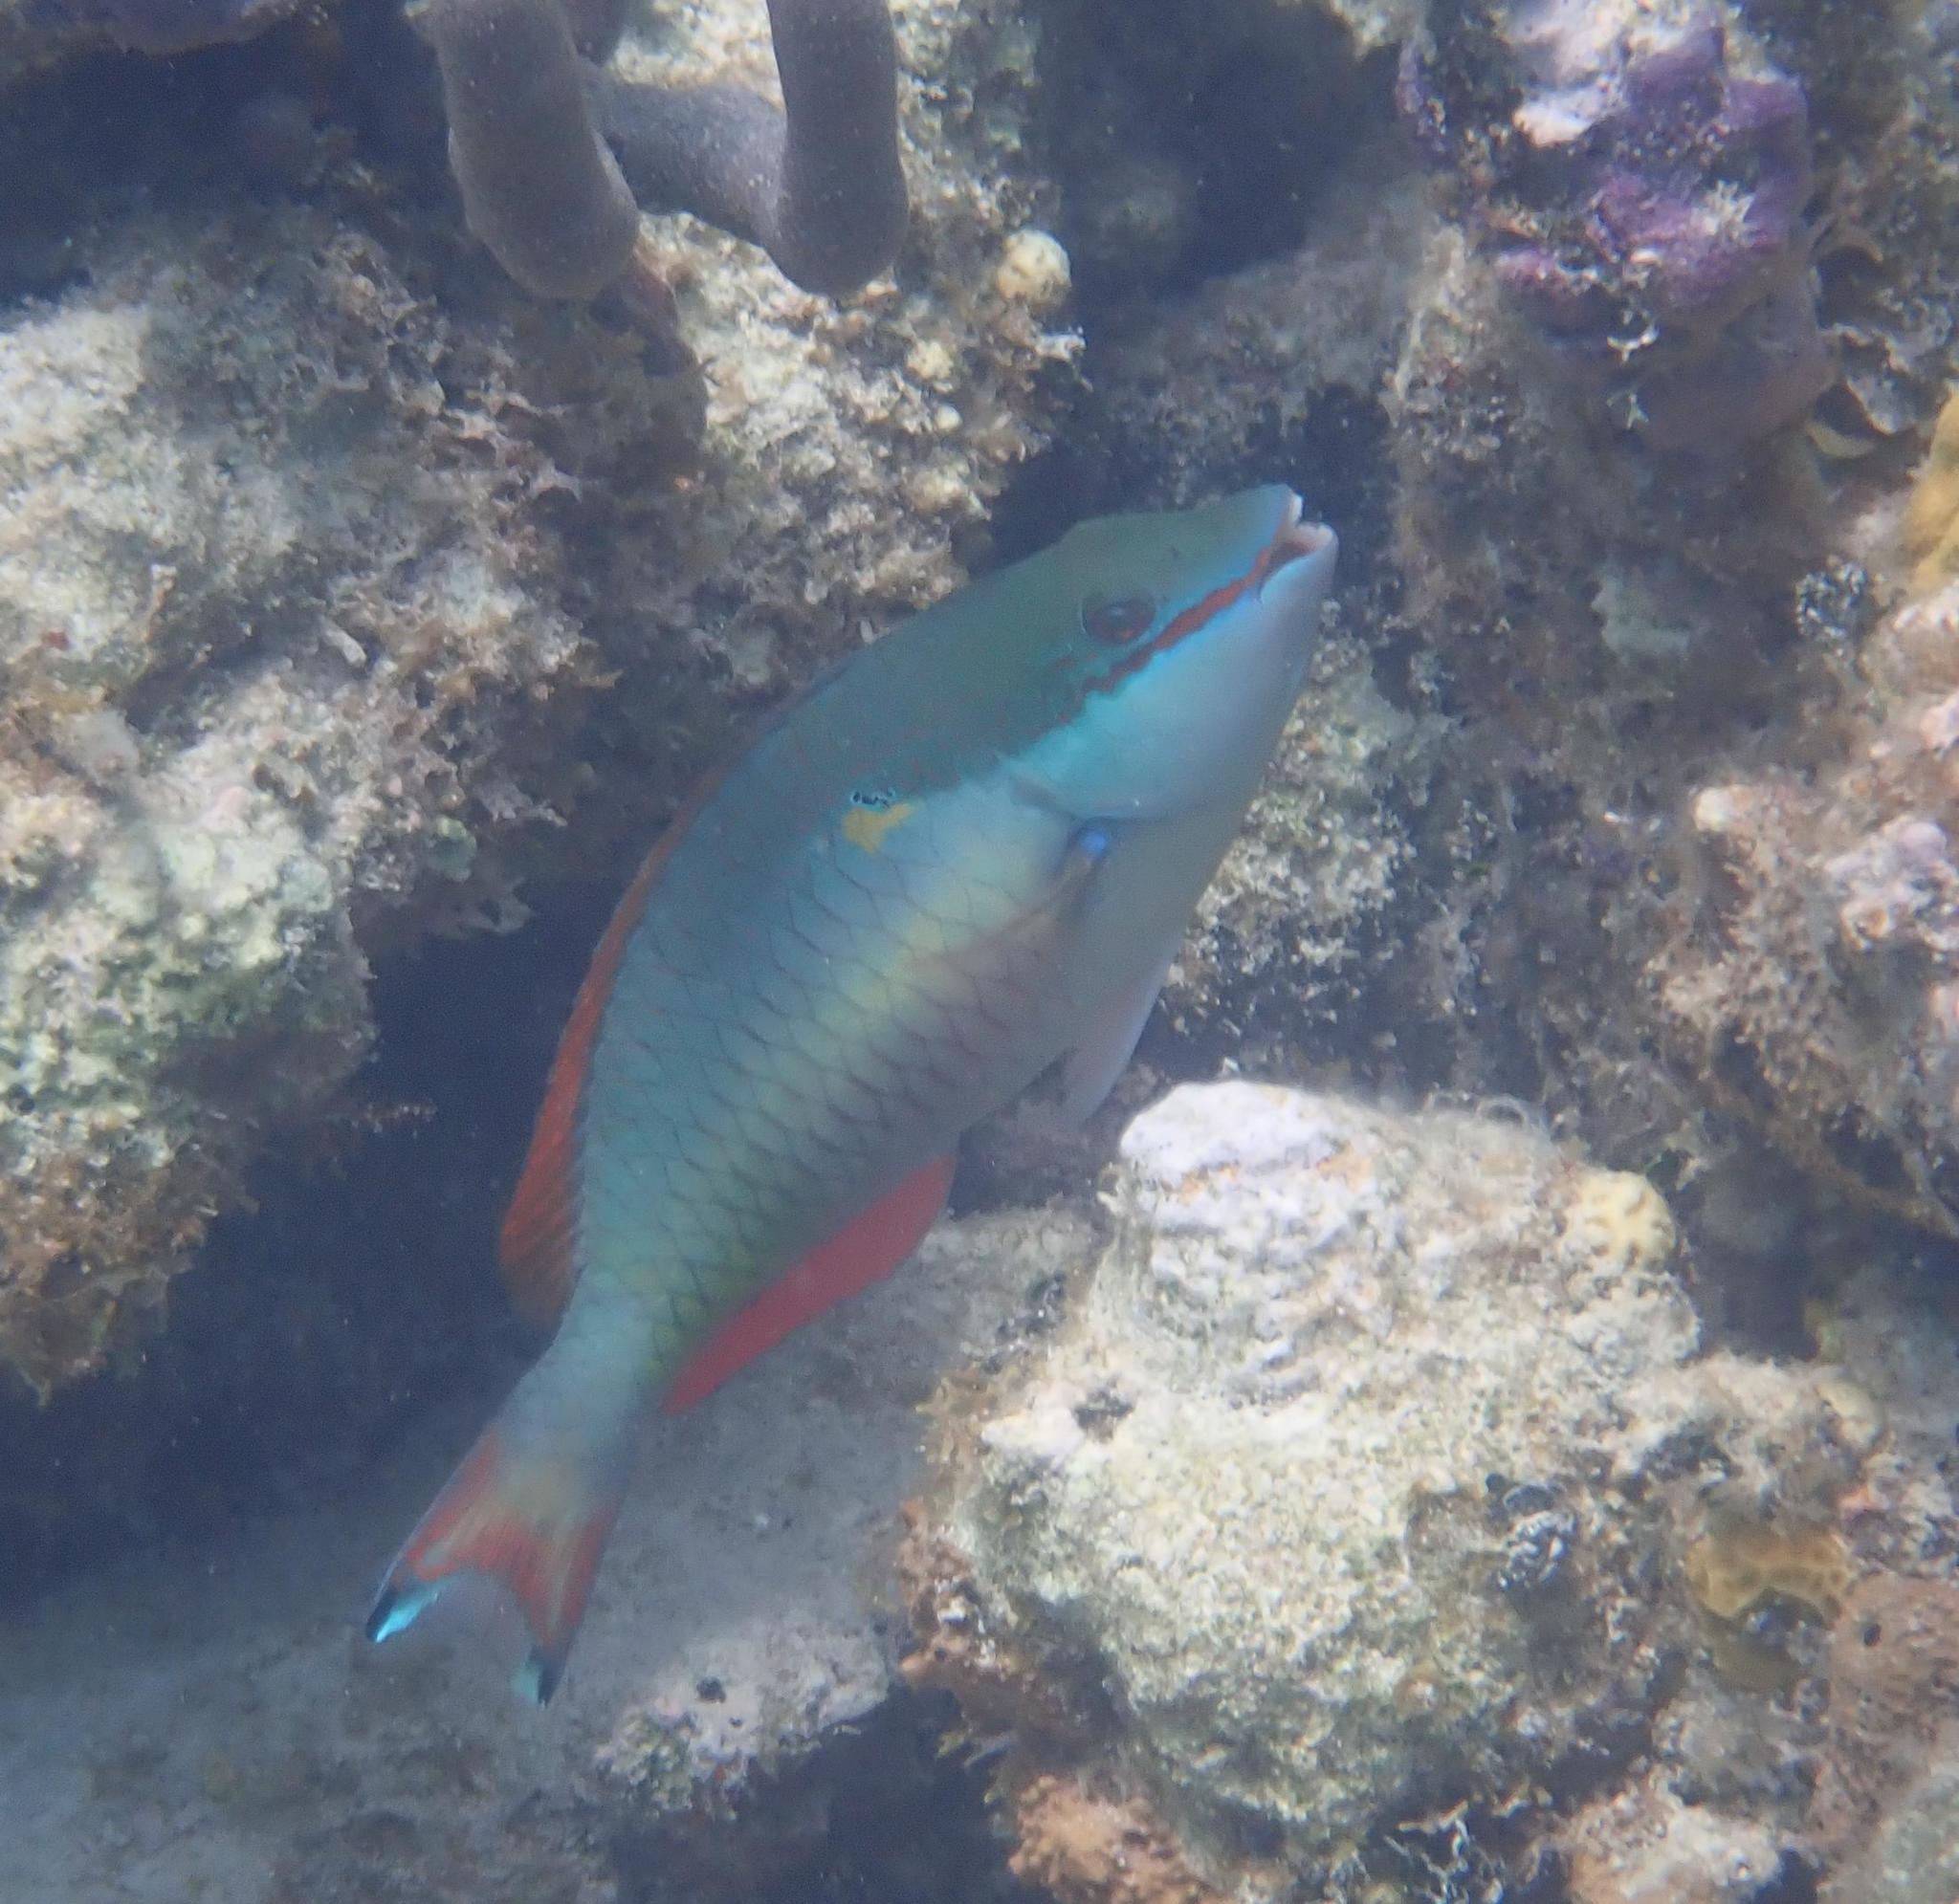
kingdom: Animalia
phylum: Chordata
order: Perciformes
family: Scaridae
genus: Sparisoma
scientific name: Sparisoma aurofrenatum
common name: Redband parrotfish
